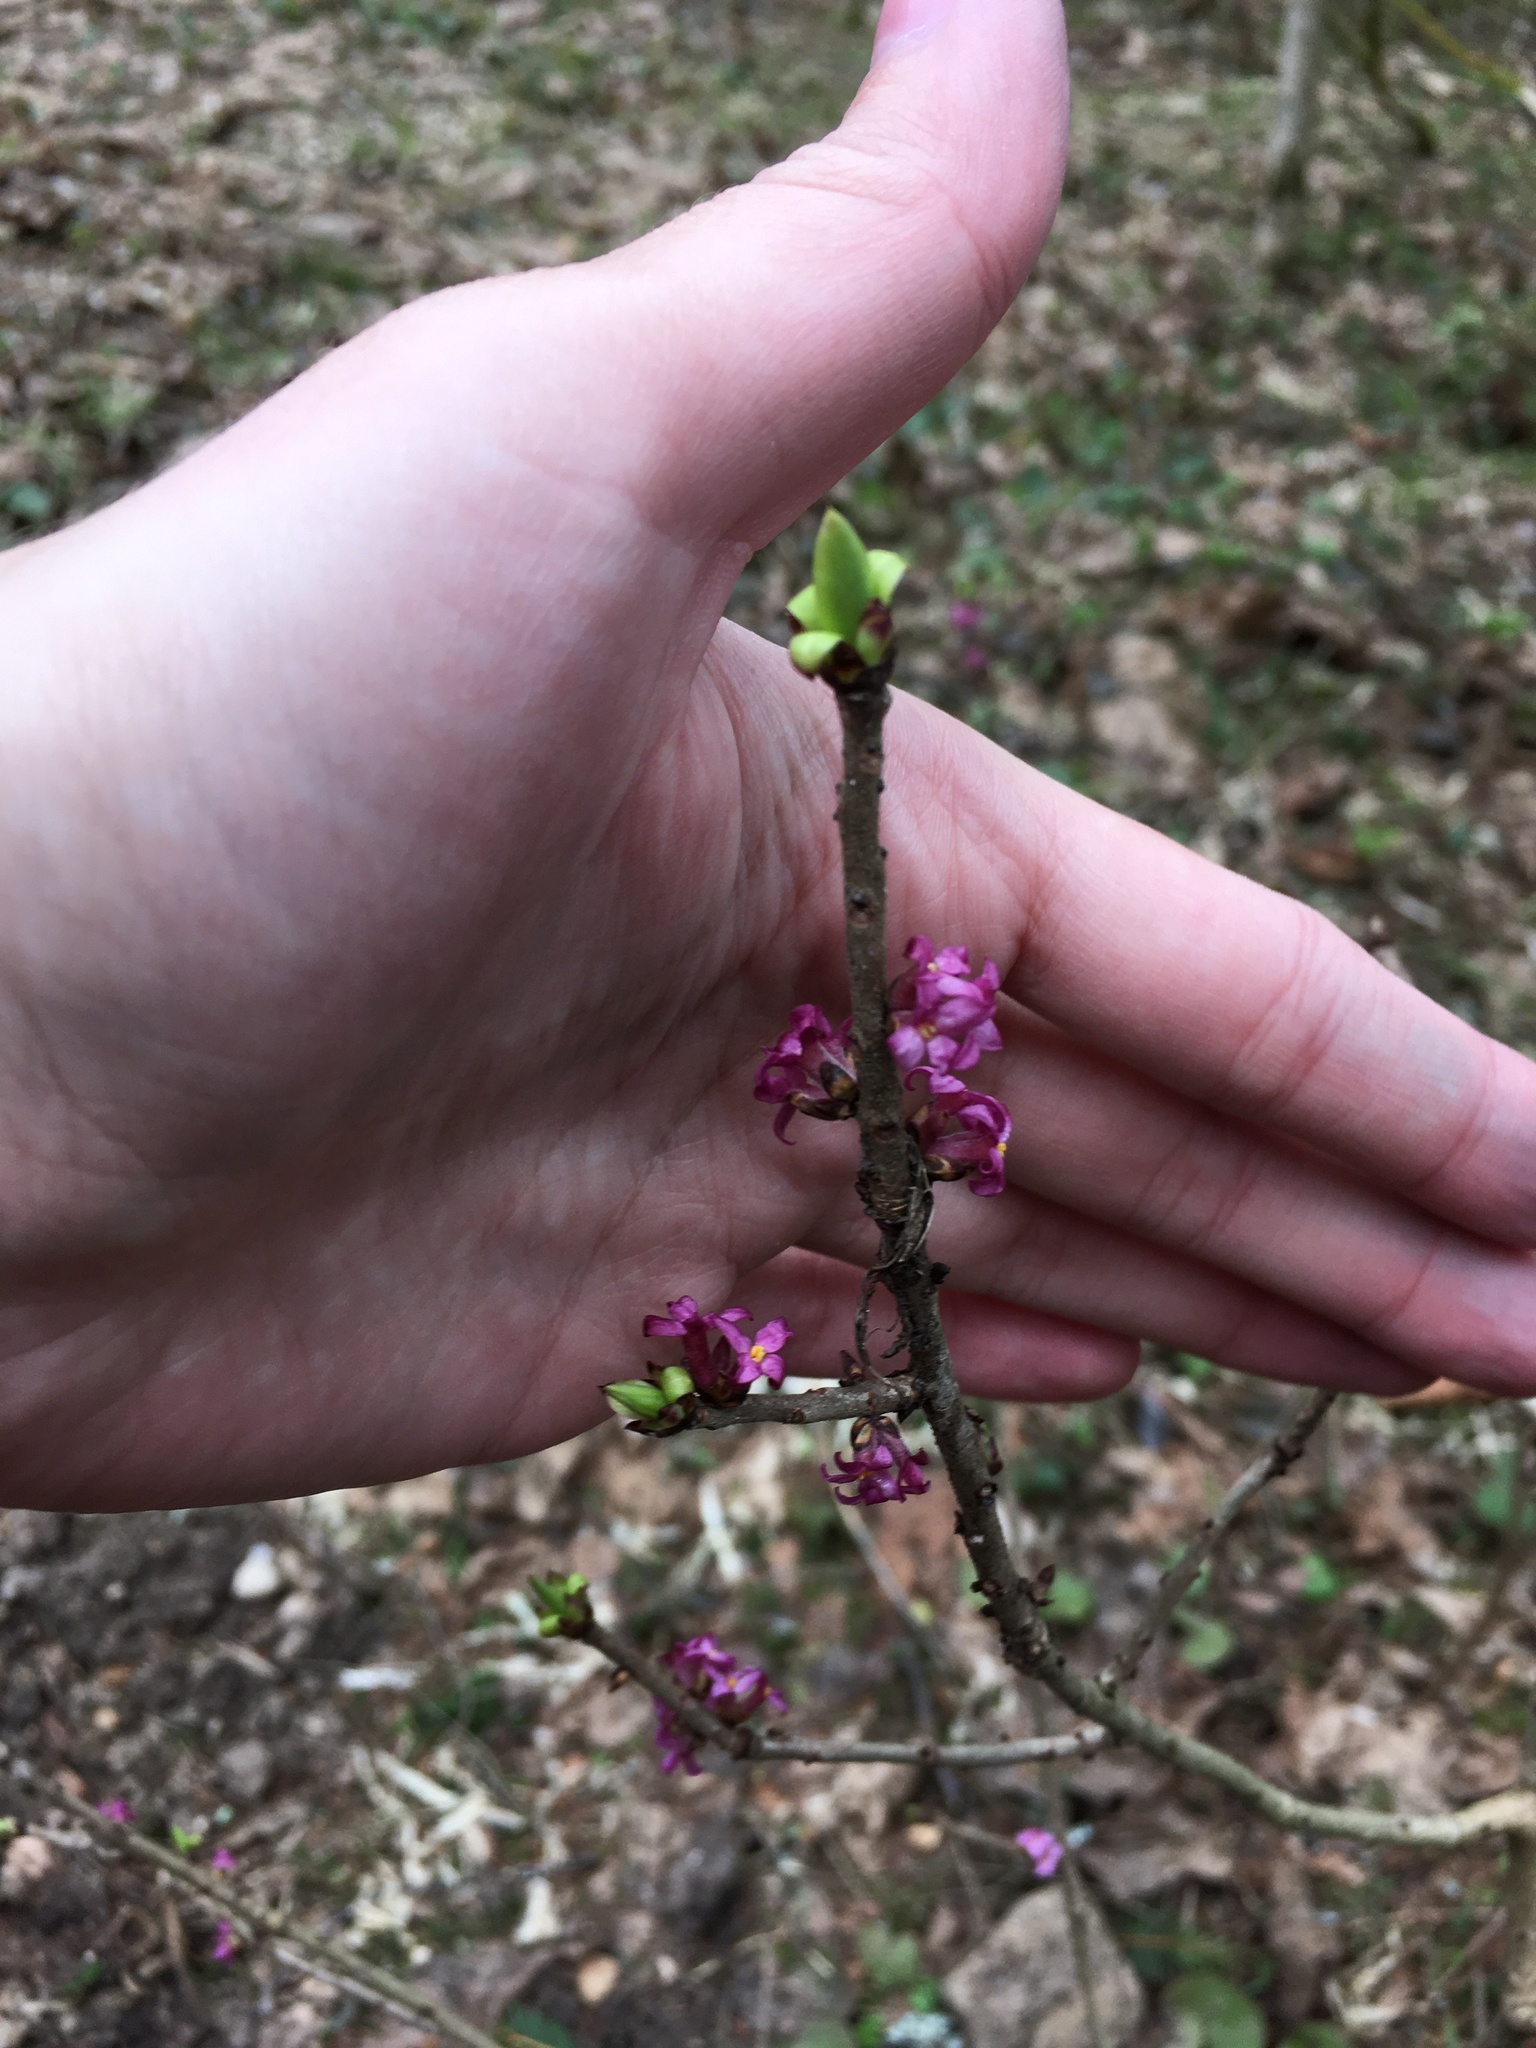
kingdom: Plantae
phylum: Tracheophyta
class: Magnoliopsida
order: Malvales
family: Thymelaeaceae
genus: Daphne
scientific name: Daphne mezereum
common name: Mezereon
